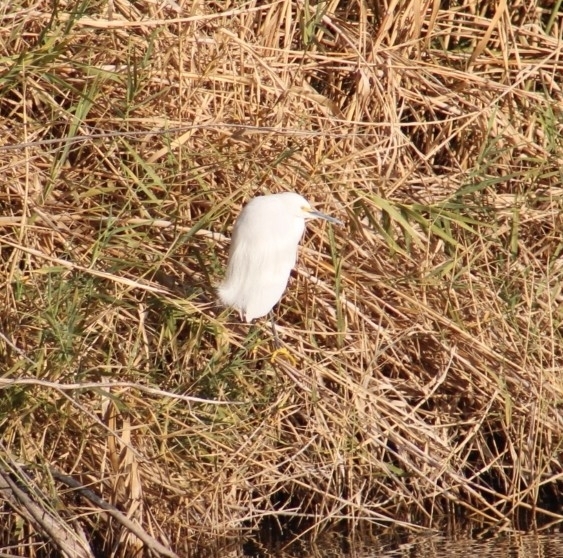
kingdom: Animalia
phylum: Chordata
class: Aves
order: Pelecaniformes
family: Ardeidae
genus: Egretta
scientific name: Egretta thula
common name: Snowy egret
